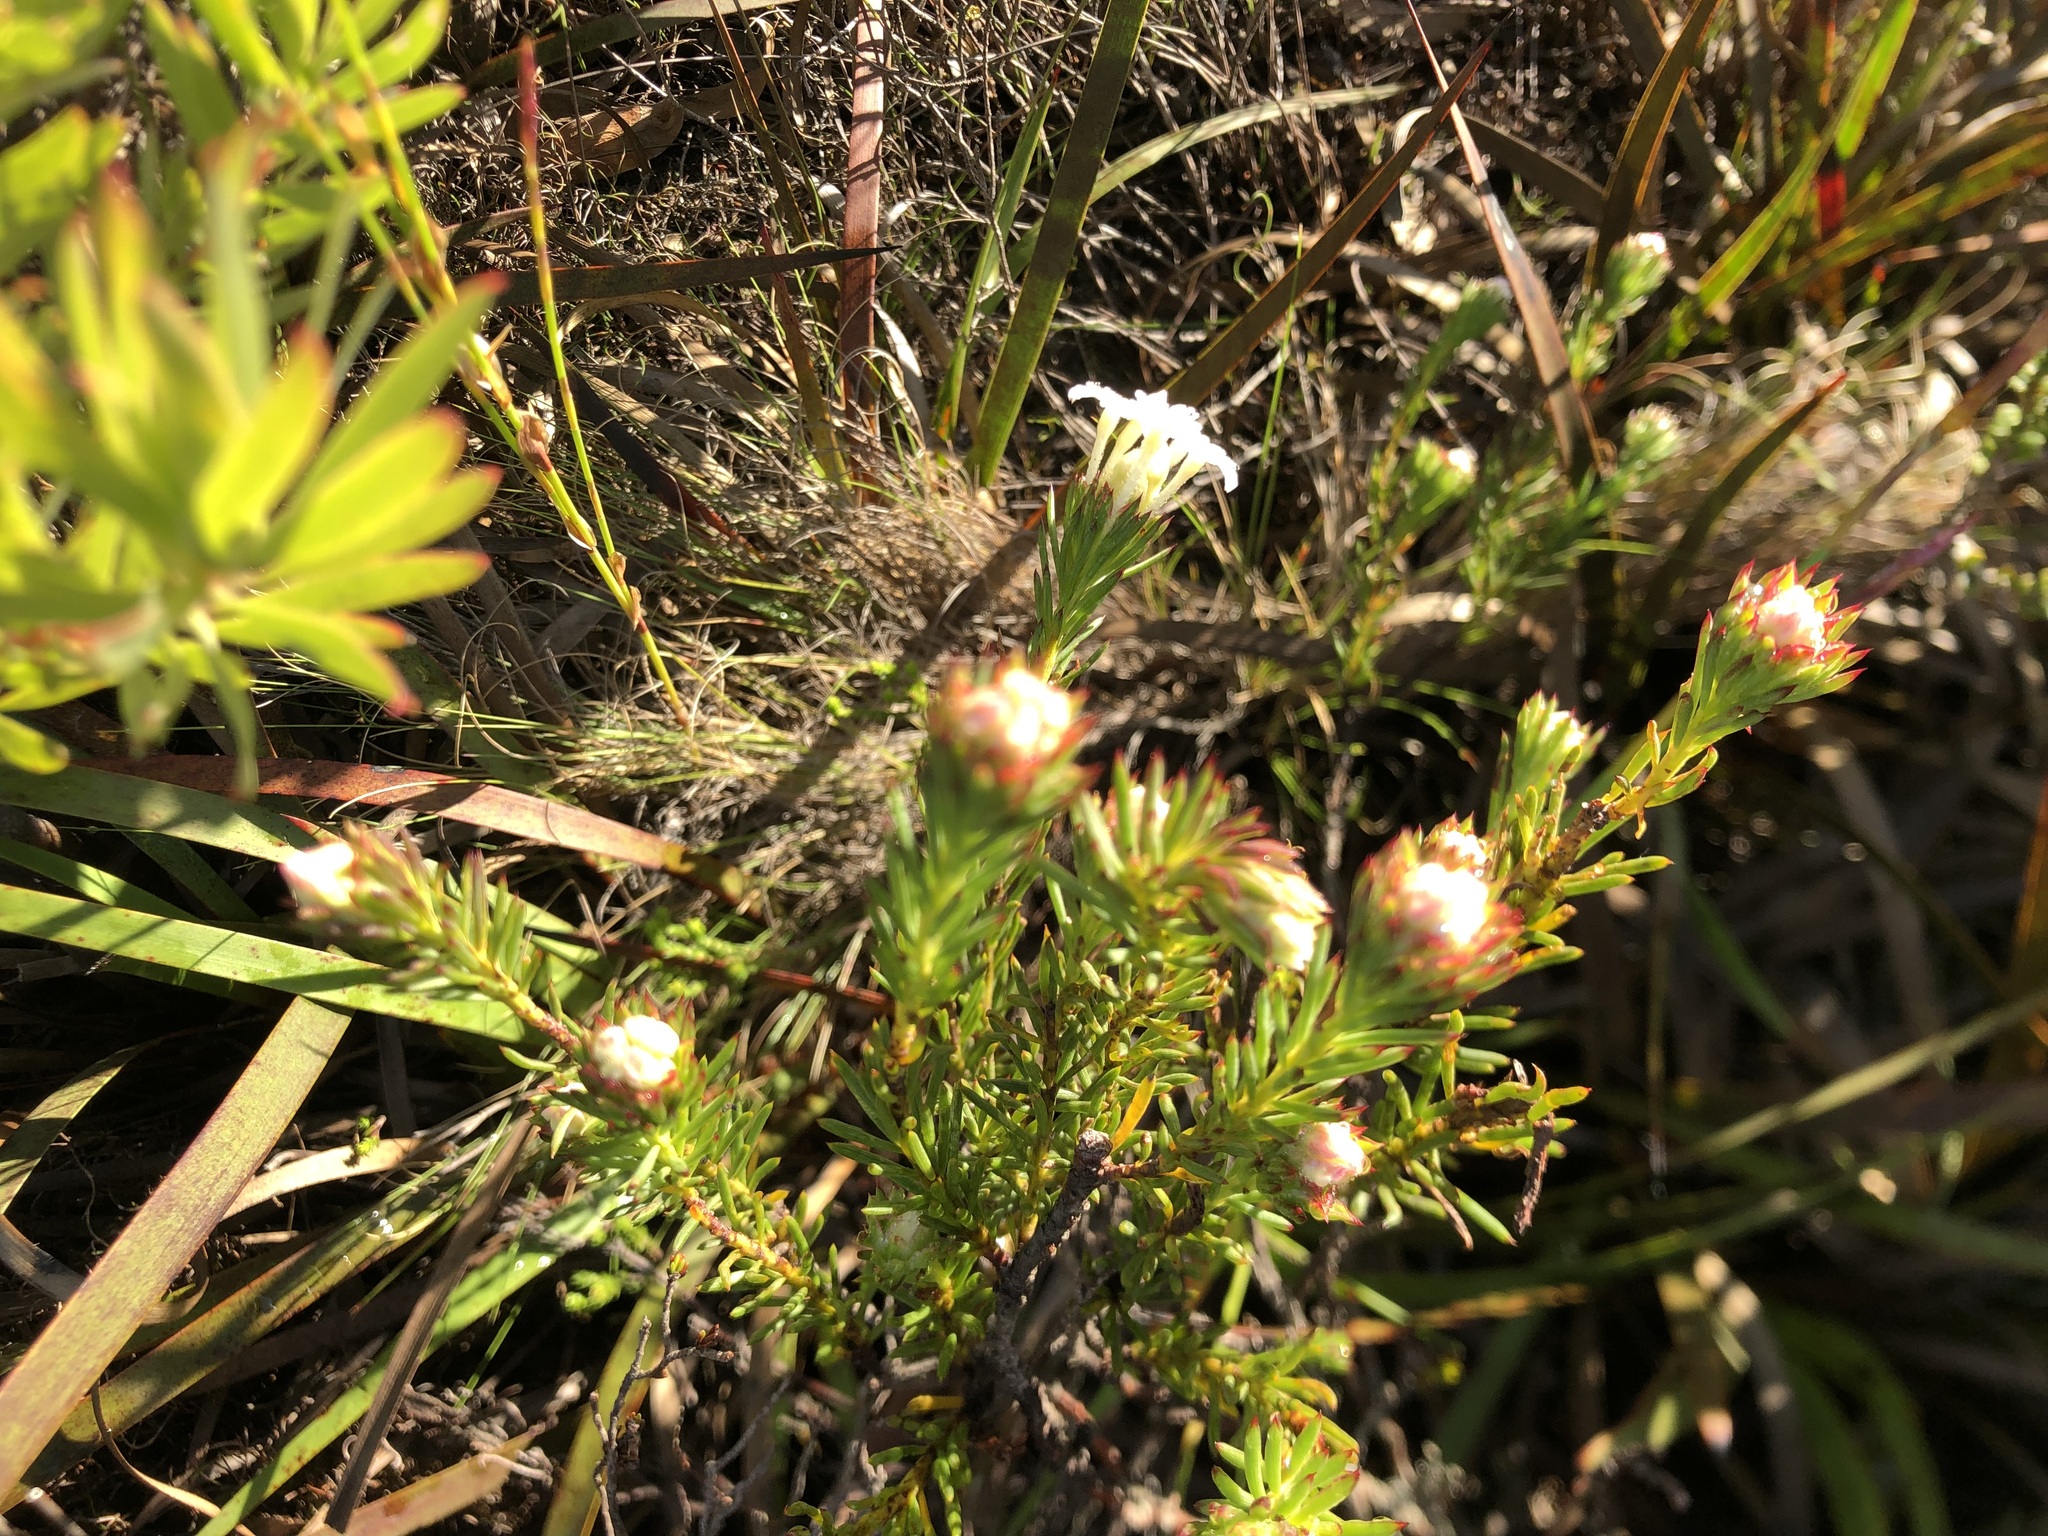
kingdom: Plantae
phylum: Tracheophyta
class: Magnoliopsida
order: Malvales
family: Thymelaeaceae
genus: Gnidia
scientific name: Gnidia pinifolia
